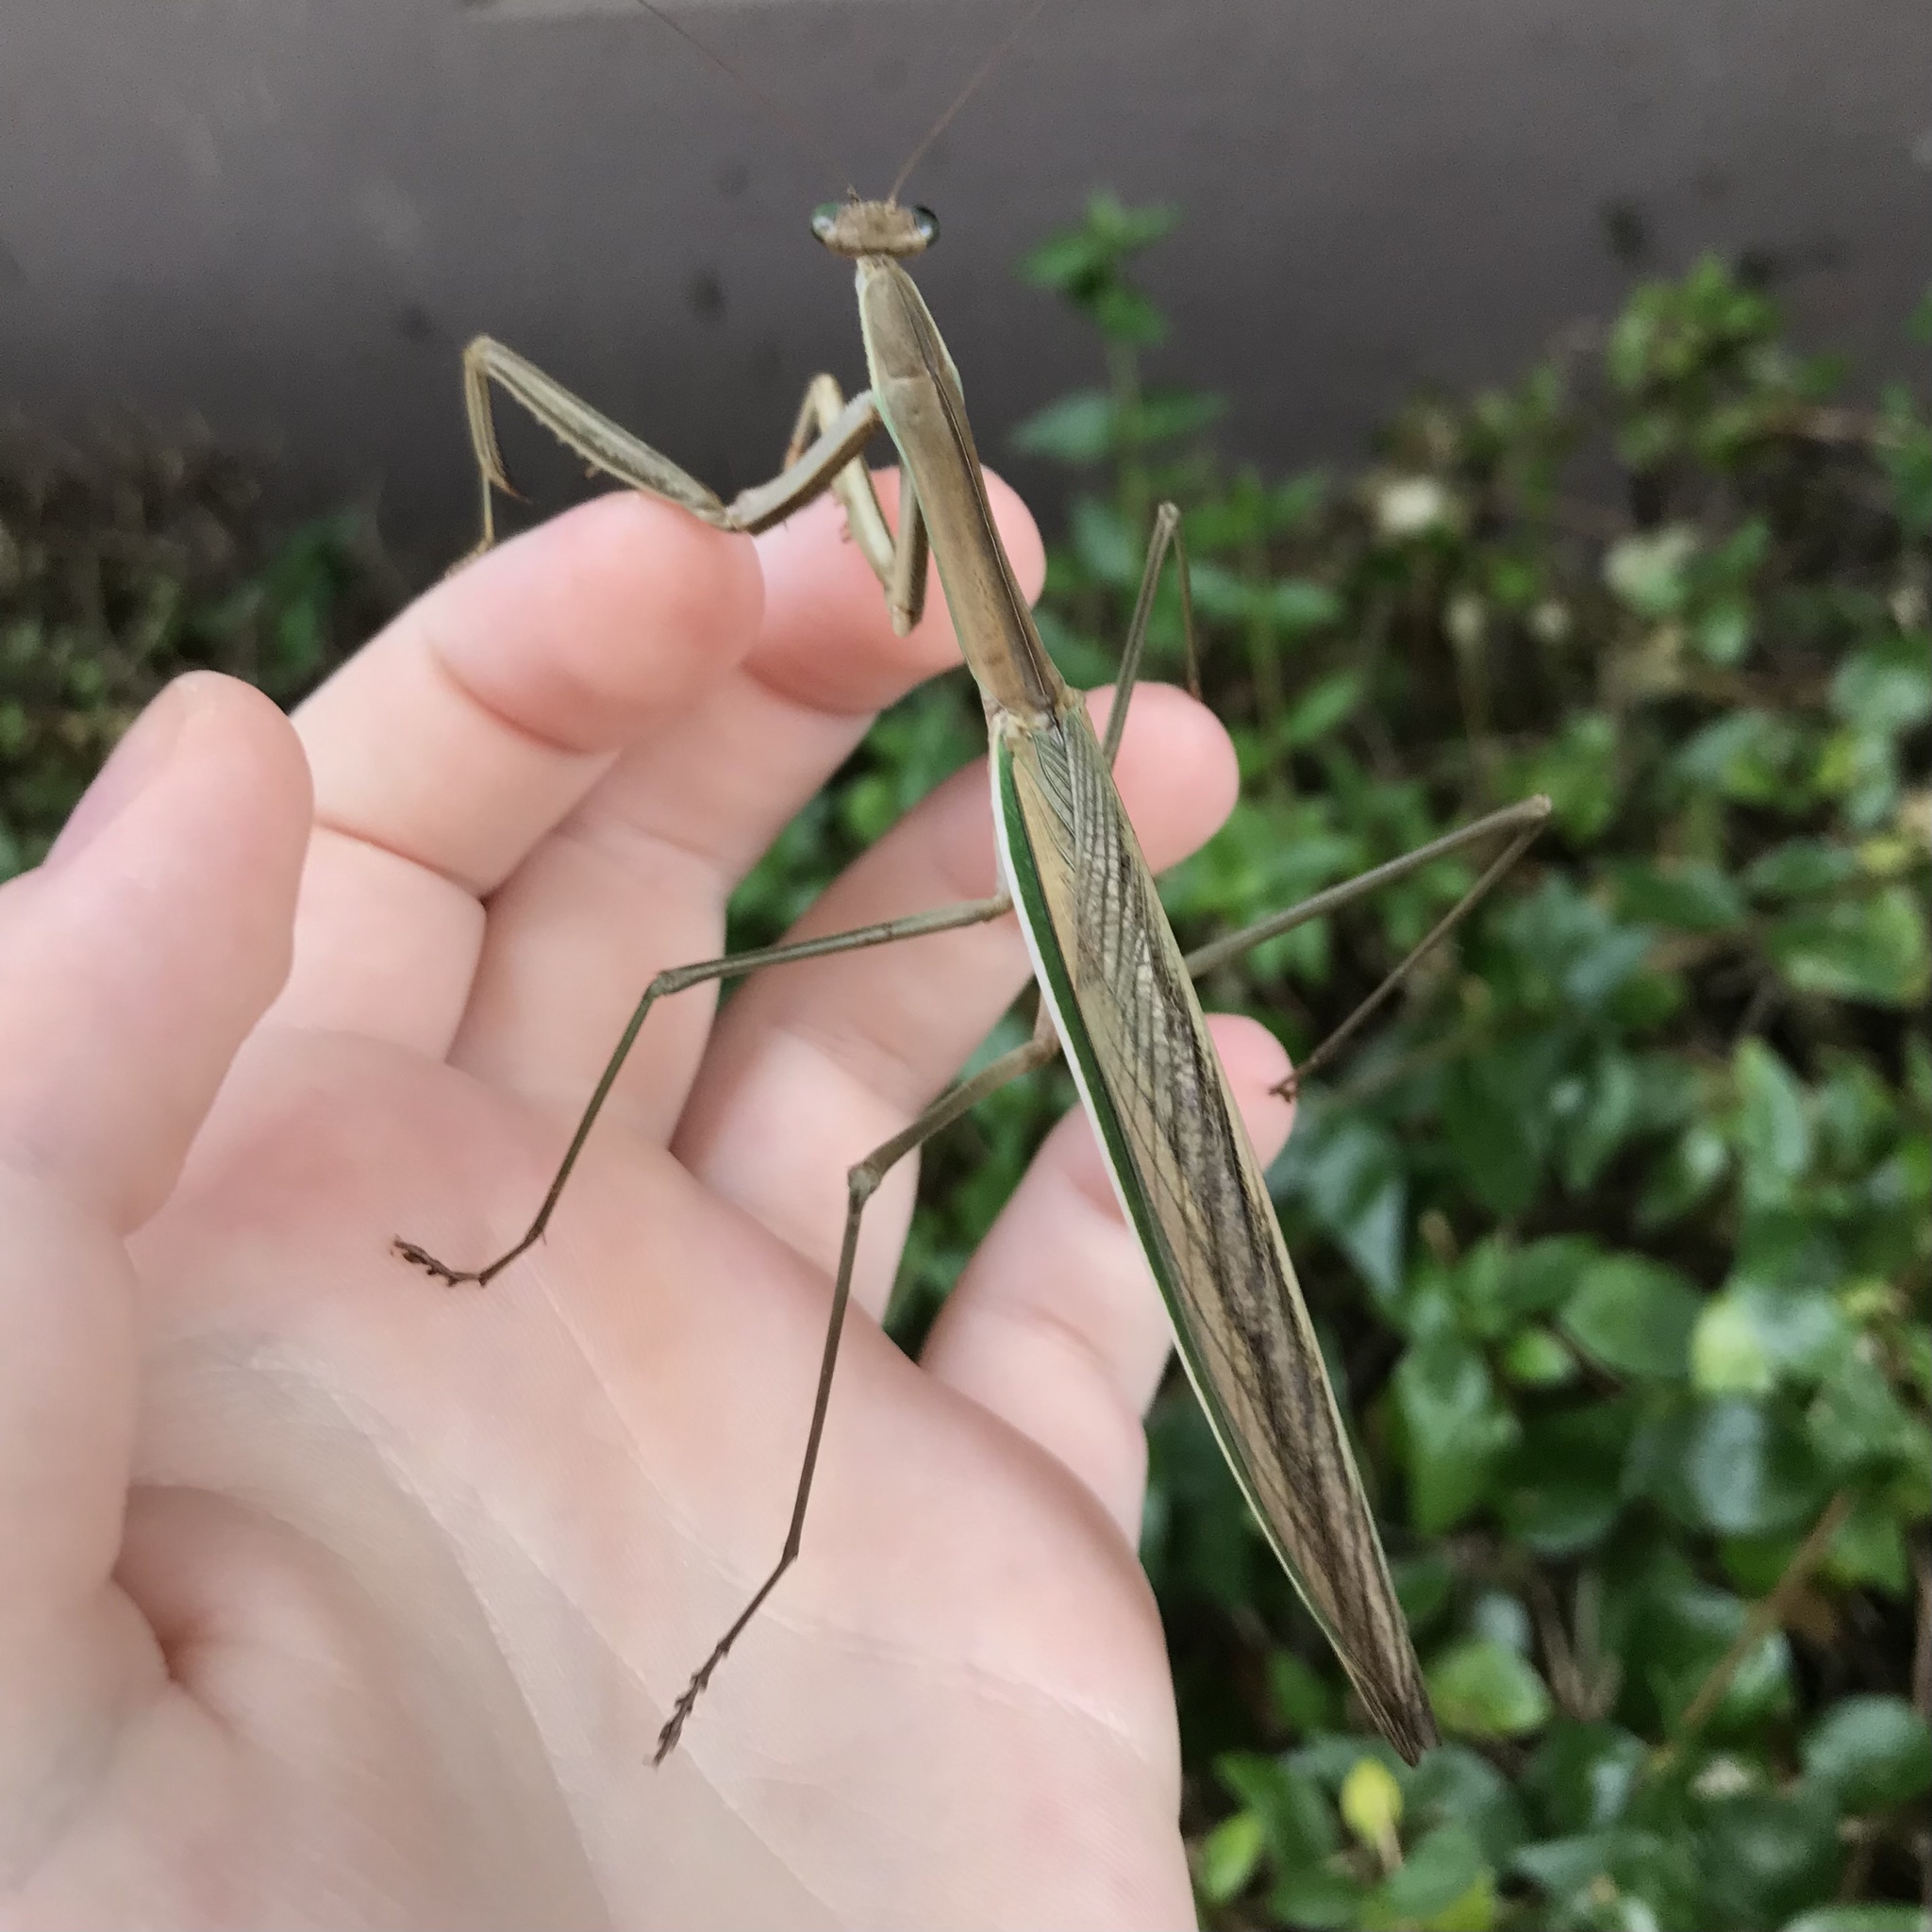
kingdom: Animalia
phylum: Arthropoda
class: Insecta
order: Mantodea
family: Mantidae
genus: Tenodera
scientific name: Tenodera australasiae
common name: Purple-winged mantis
